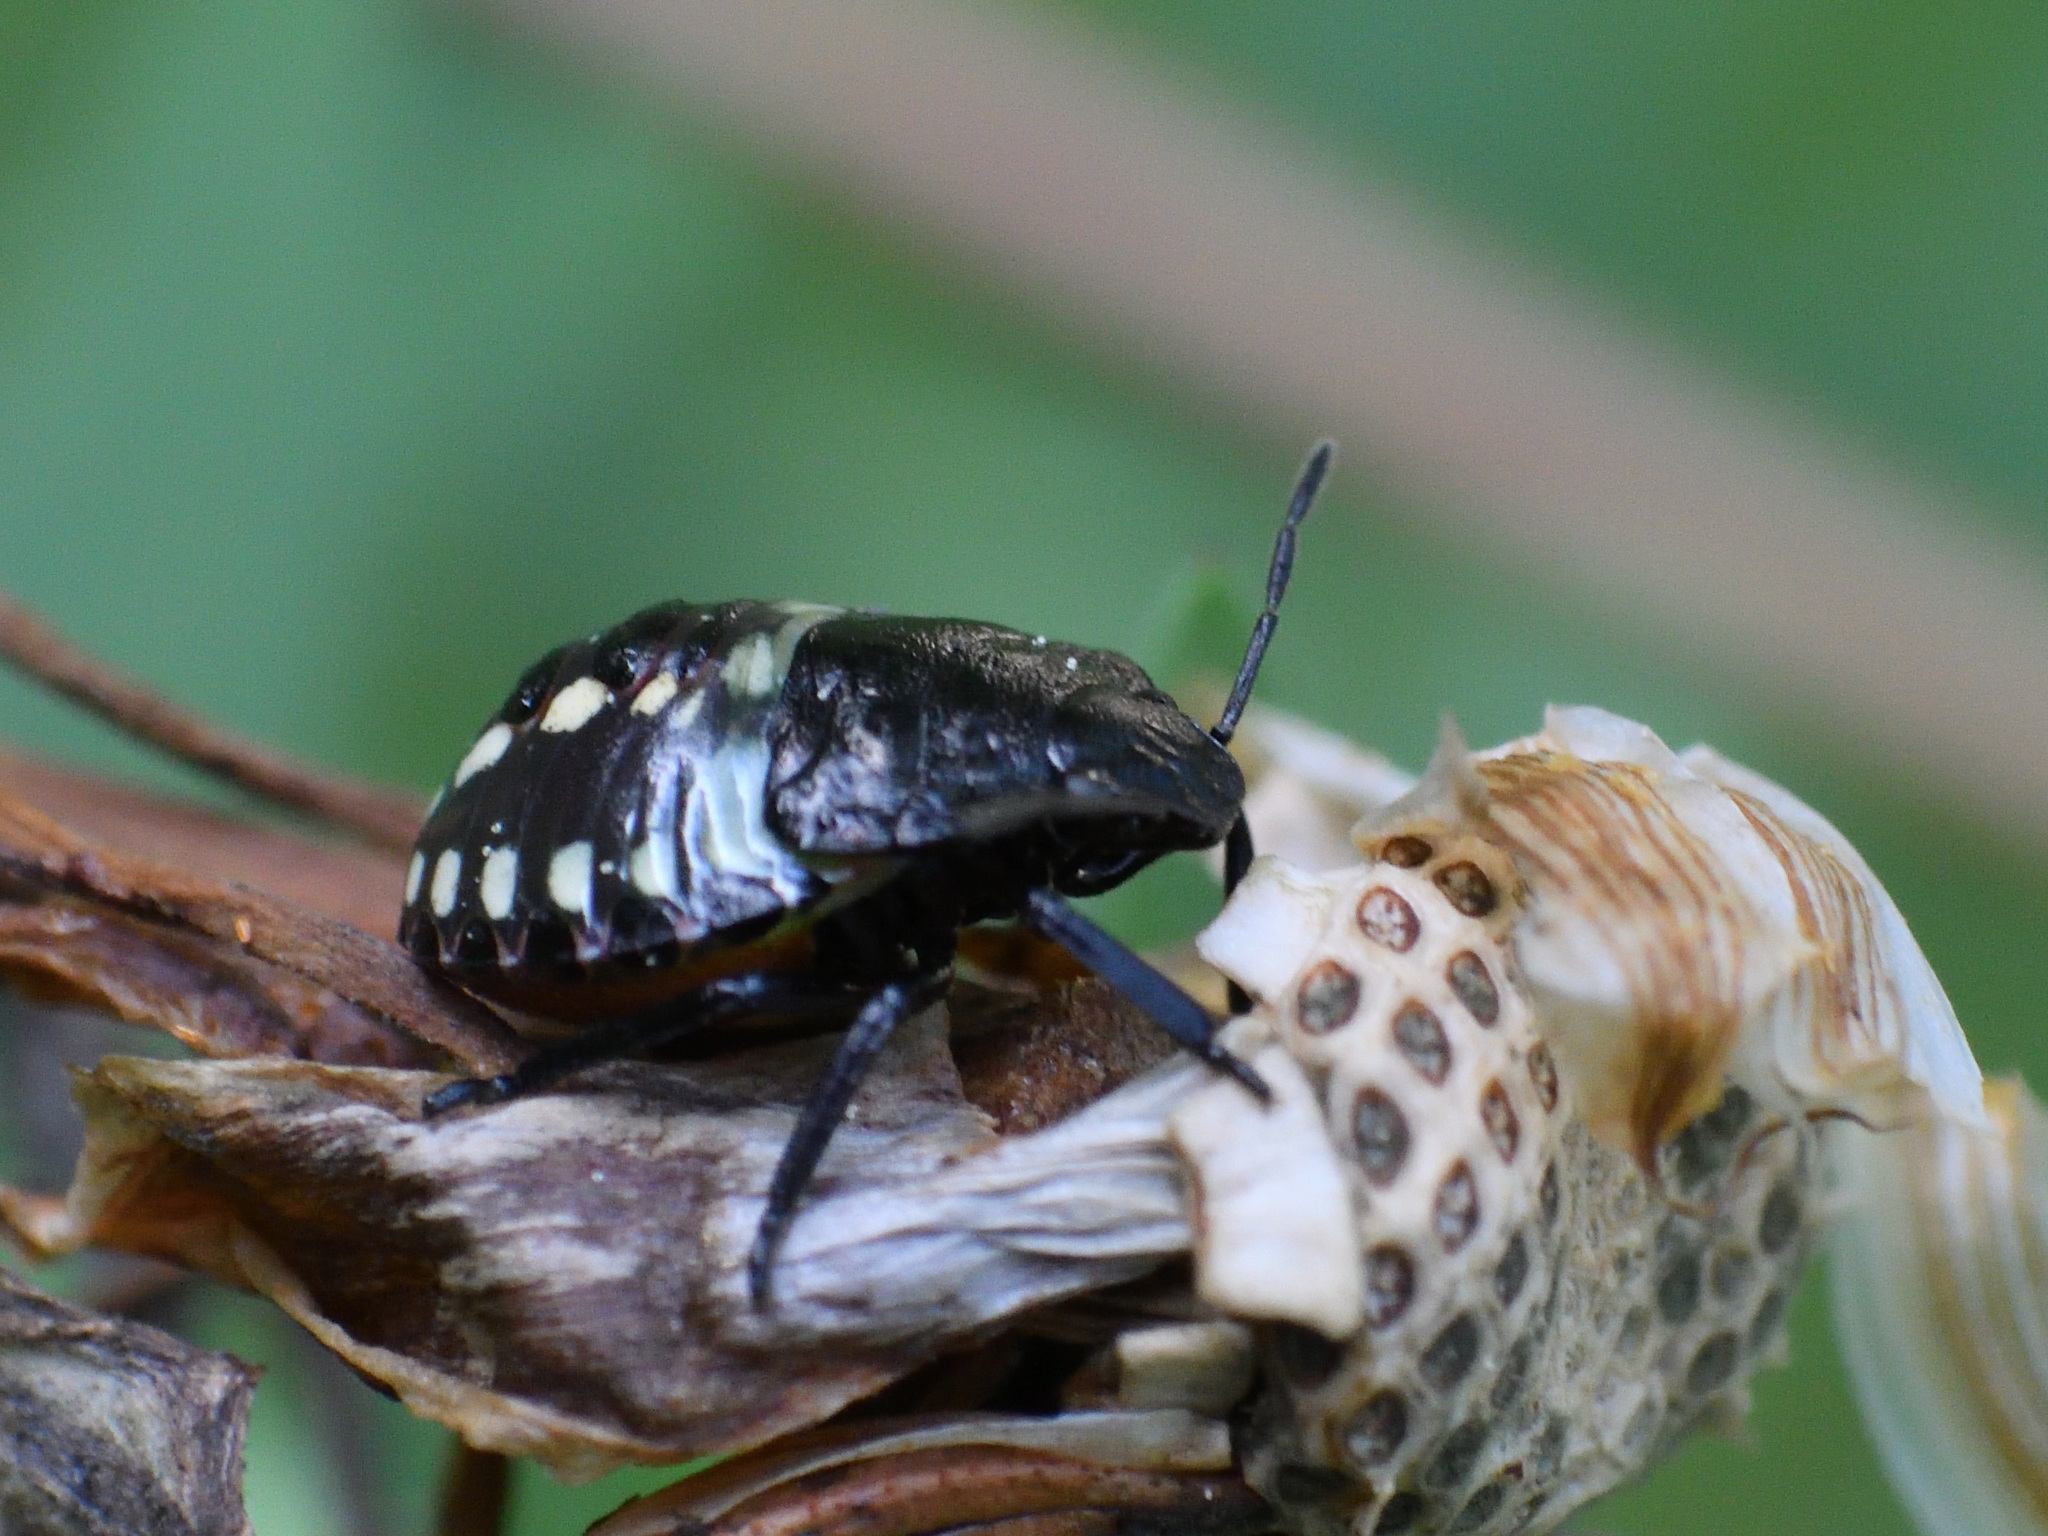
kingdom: Animalia
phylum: Arthropoda
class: Insecta
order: Hemiptera
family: Pentatomidae
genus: Nezara
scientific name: Nezara viridula
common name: Southern green stink bug
